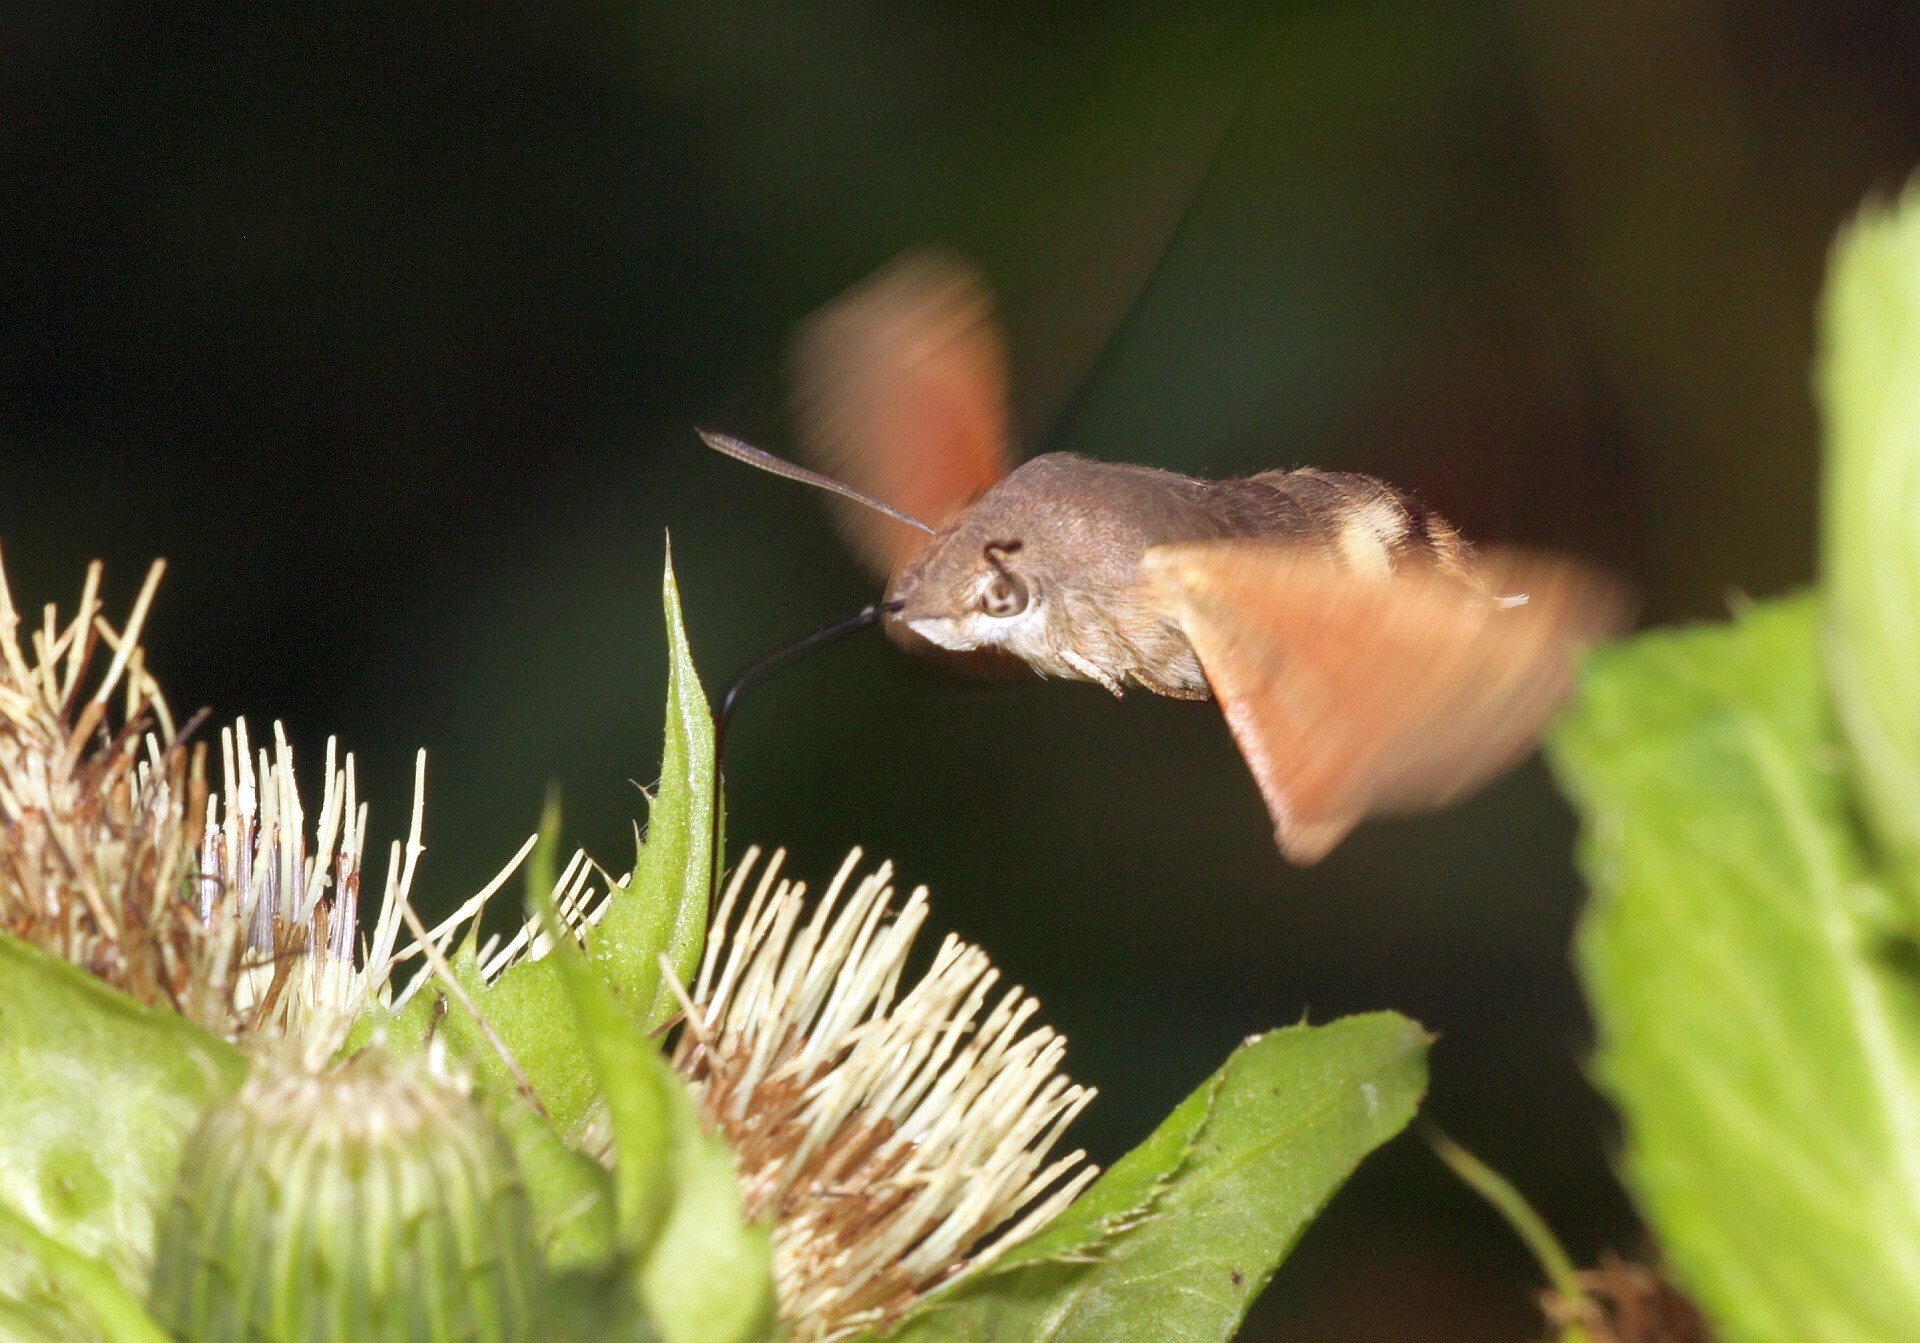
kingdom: Animalia
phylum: Arthropoda
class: Insecta
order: Lepidoptera
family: Sphingidae
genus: Macroglossum
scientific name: Macroglossum stellatarum
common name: Humming-bird hawk-moth
